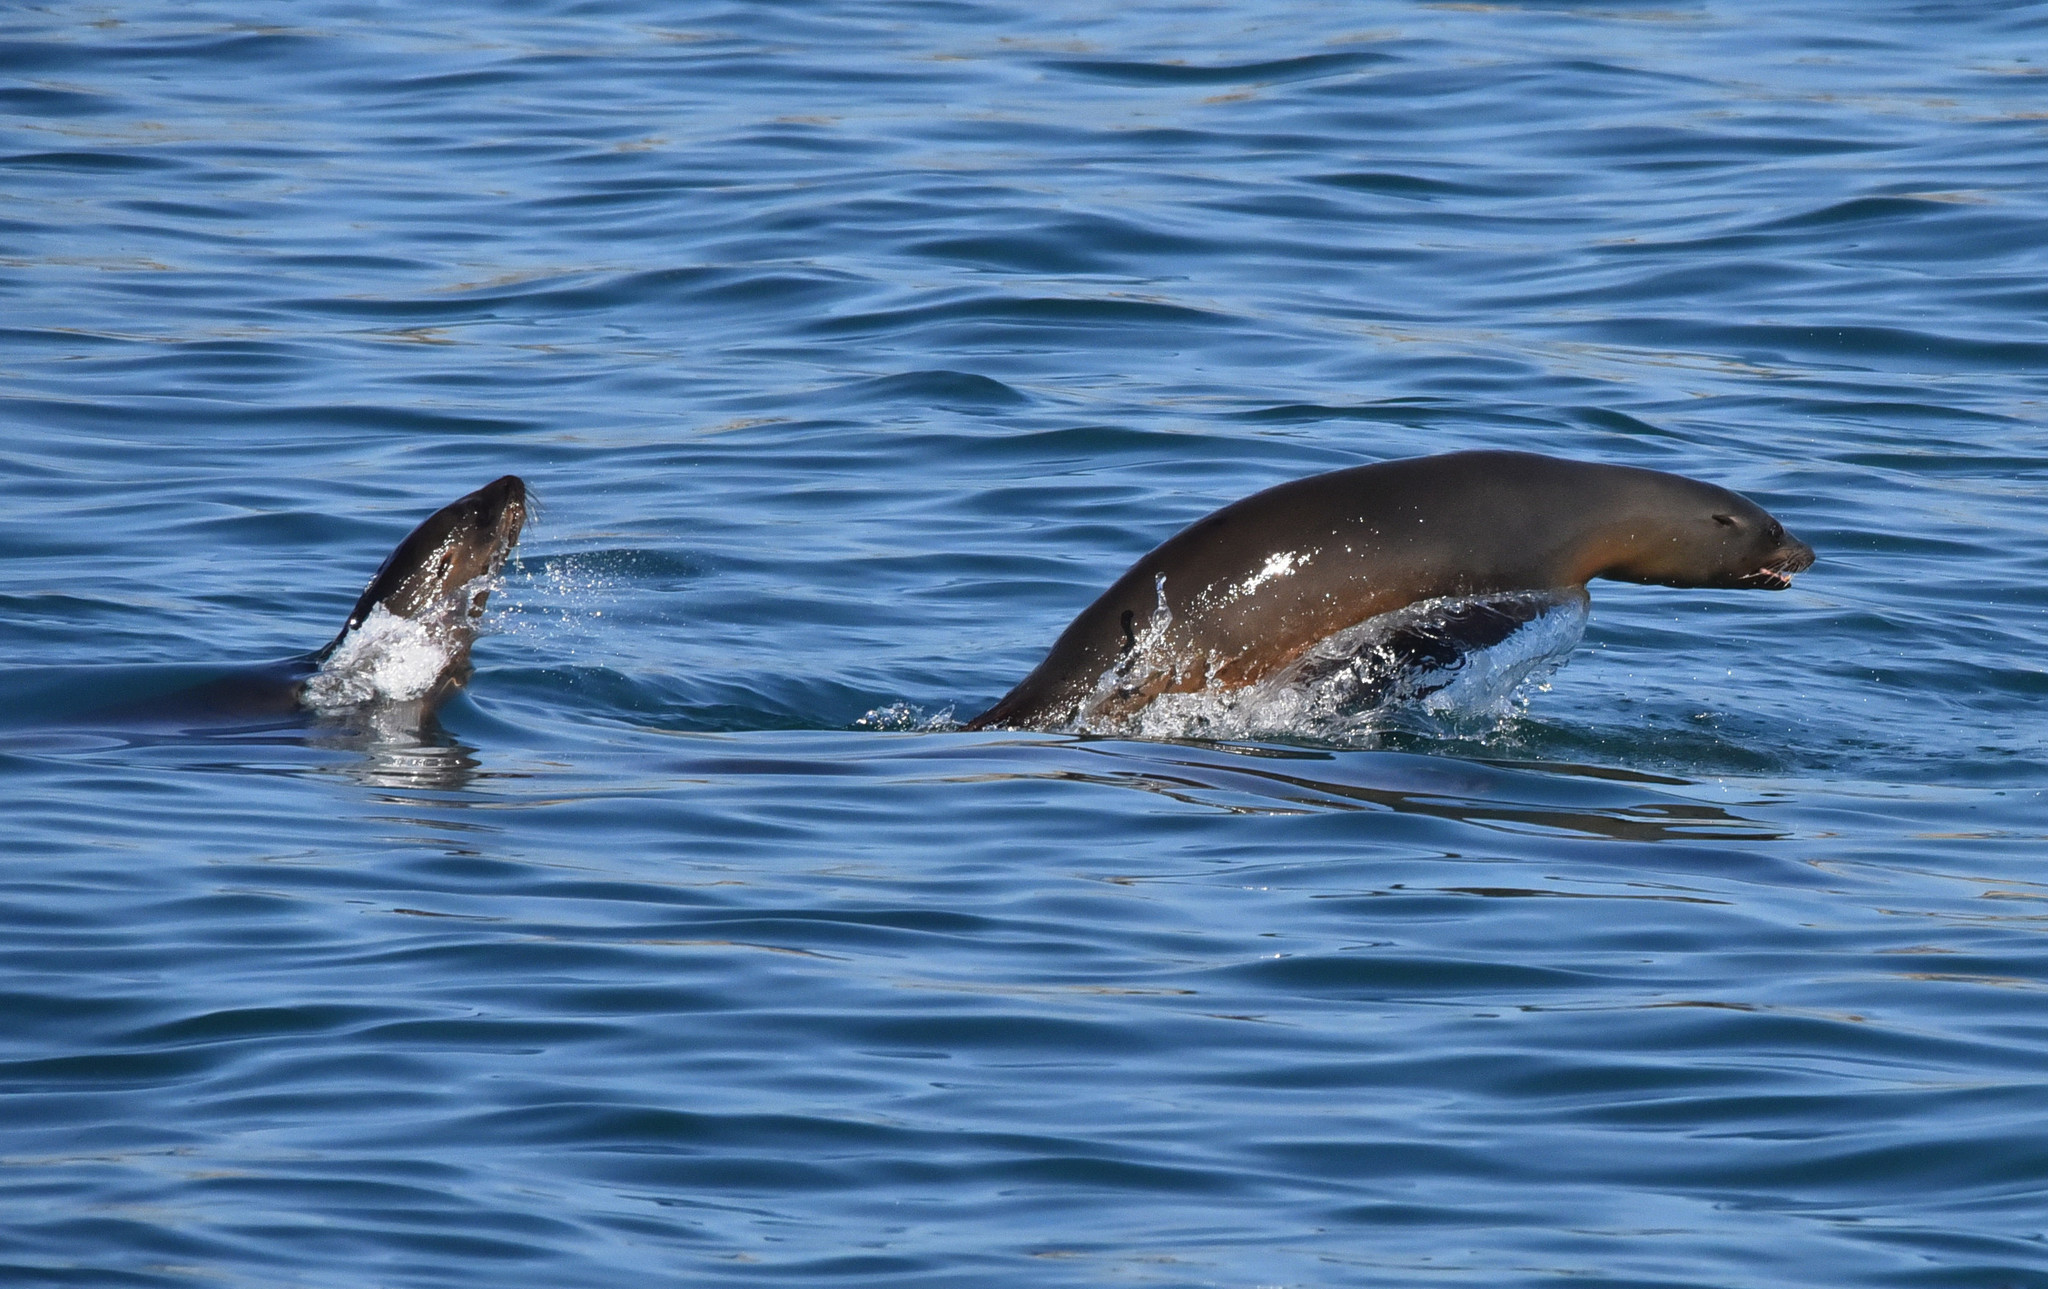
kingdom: Animalia
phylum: Chordata
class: Mammalia
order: Carnivora
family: Otariidae
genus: Zalophus
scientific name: Zalophus californianus
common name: California sea lion
